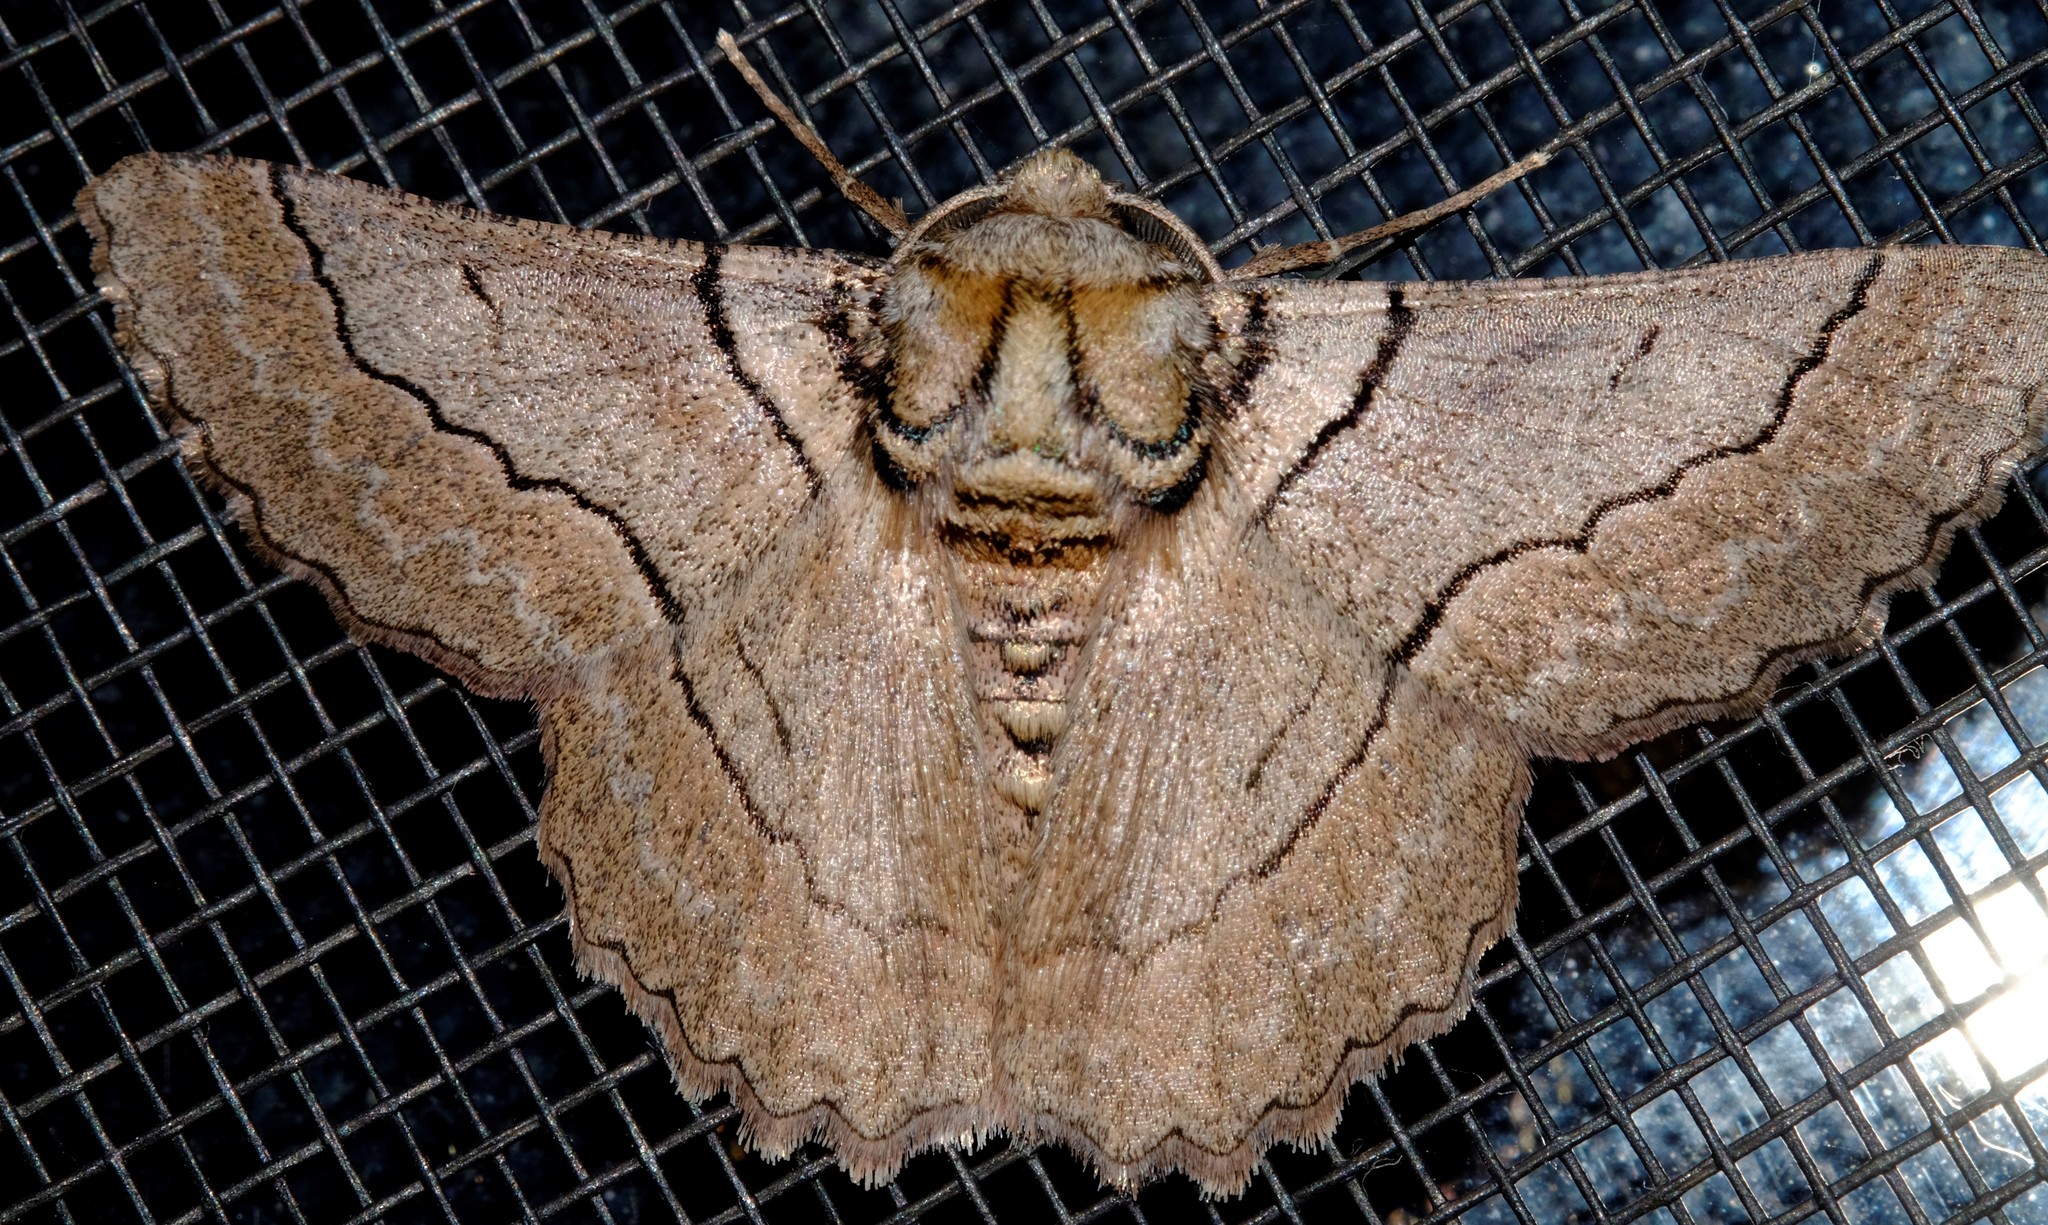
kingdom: Animalia
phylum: Arthropoda
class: Insecta
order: Lepidoptera
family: Geometridae
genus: Hypobapta
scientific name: Hypobapta tachyhalotaria
